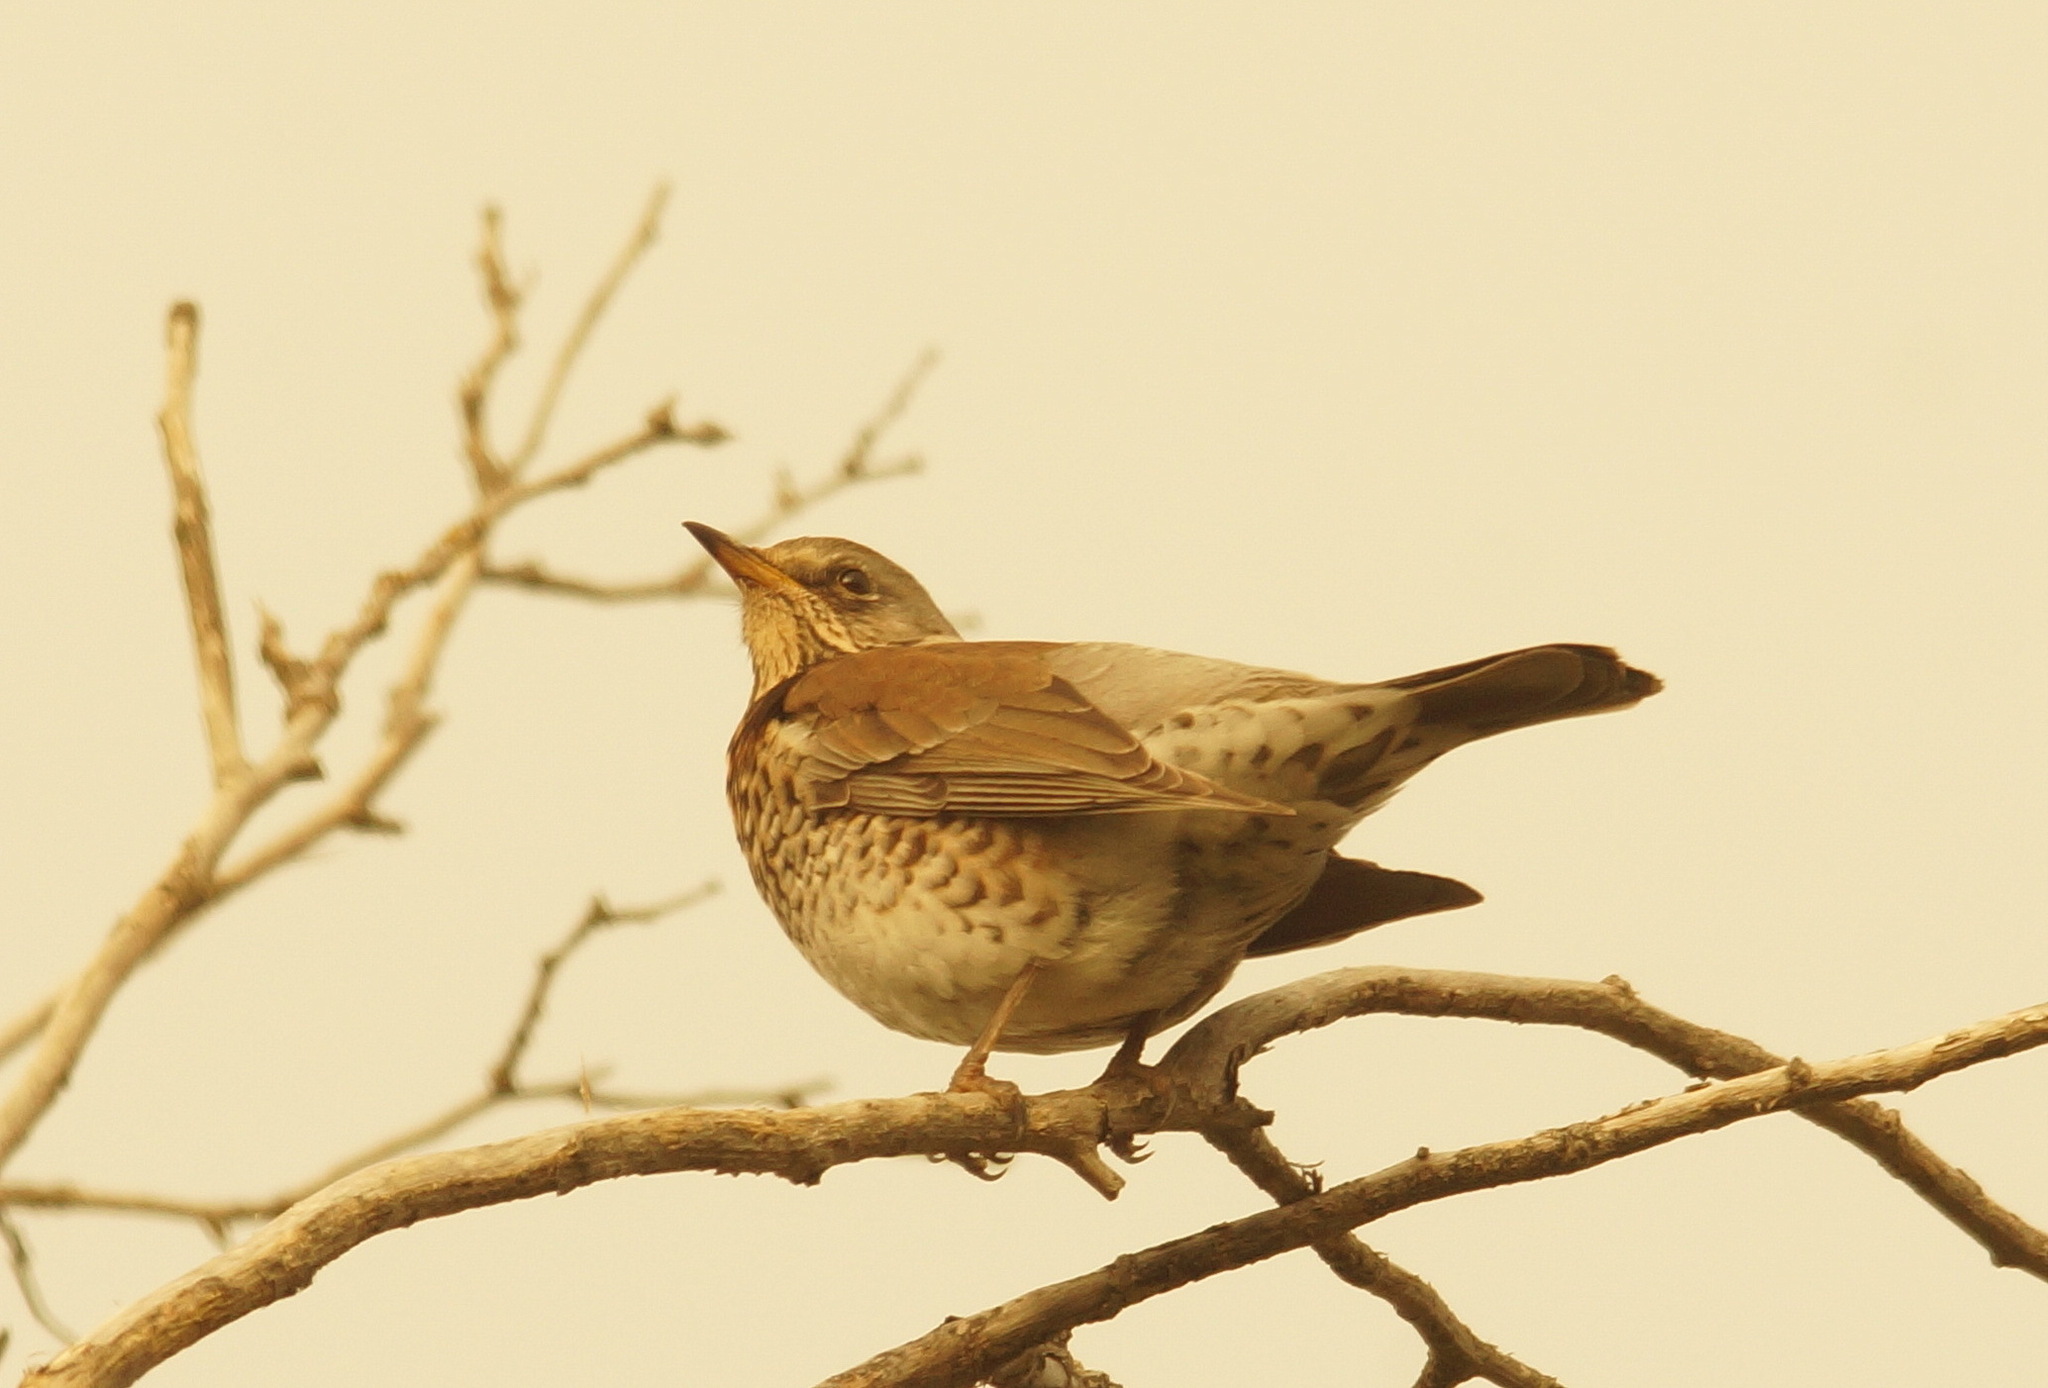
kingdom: Animalia
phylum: Chordata
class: Aves
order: Passeriformes
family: Turdidae
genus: Turdus
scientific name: Turdus pilaris
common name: Fieldfare
